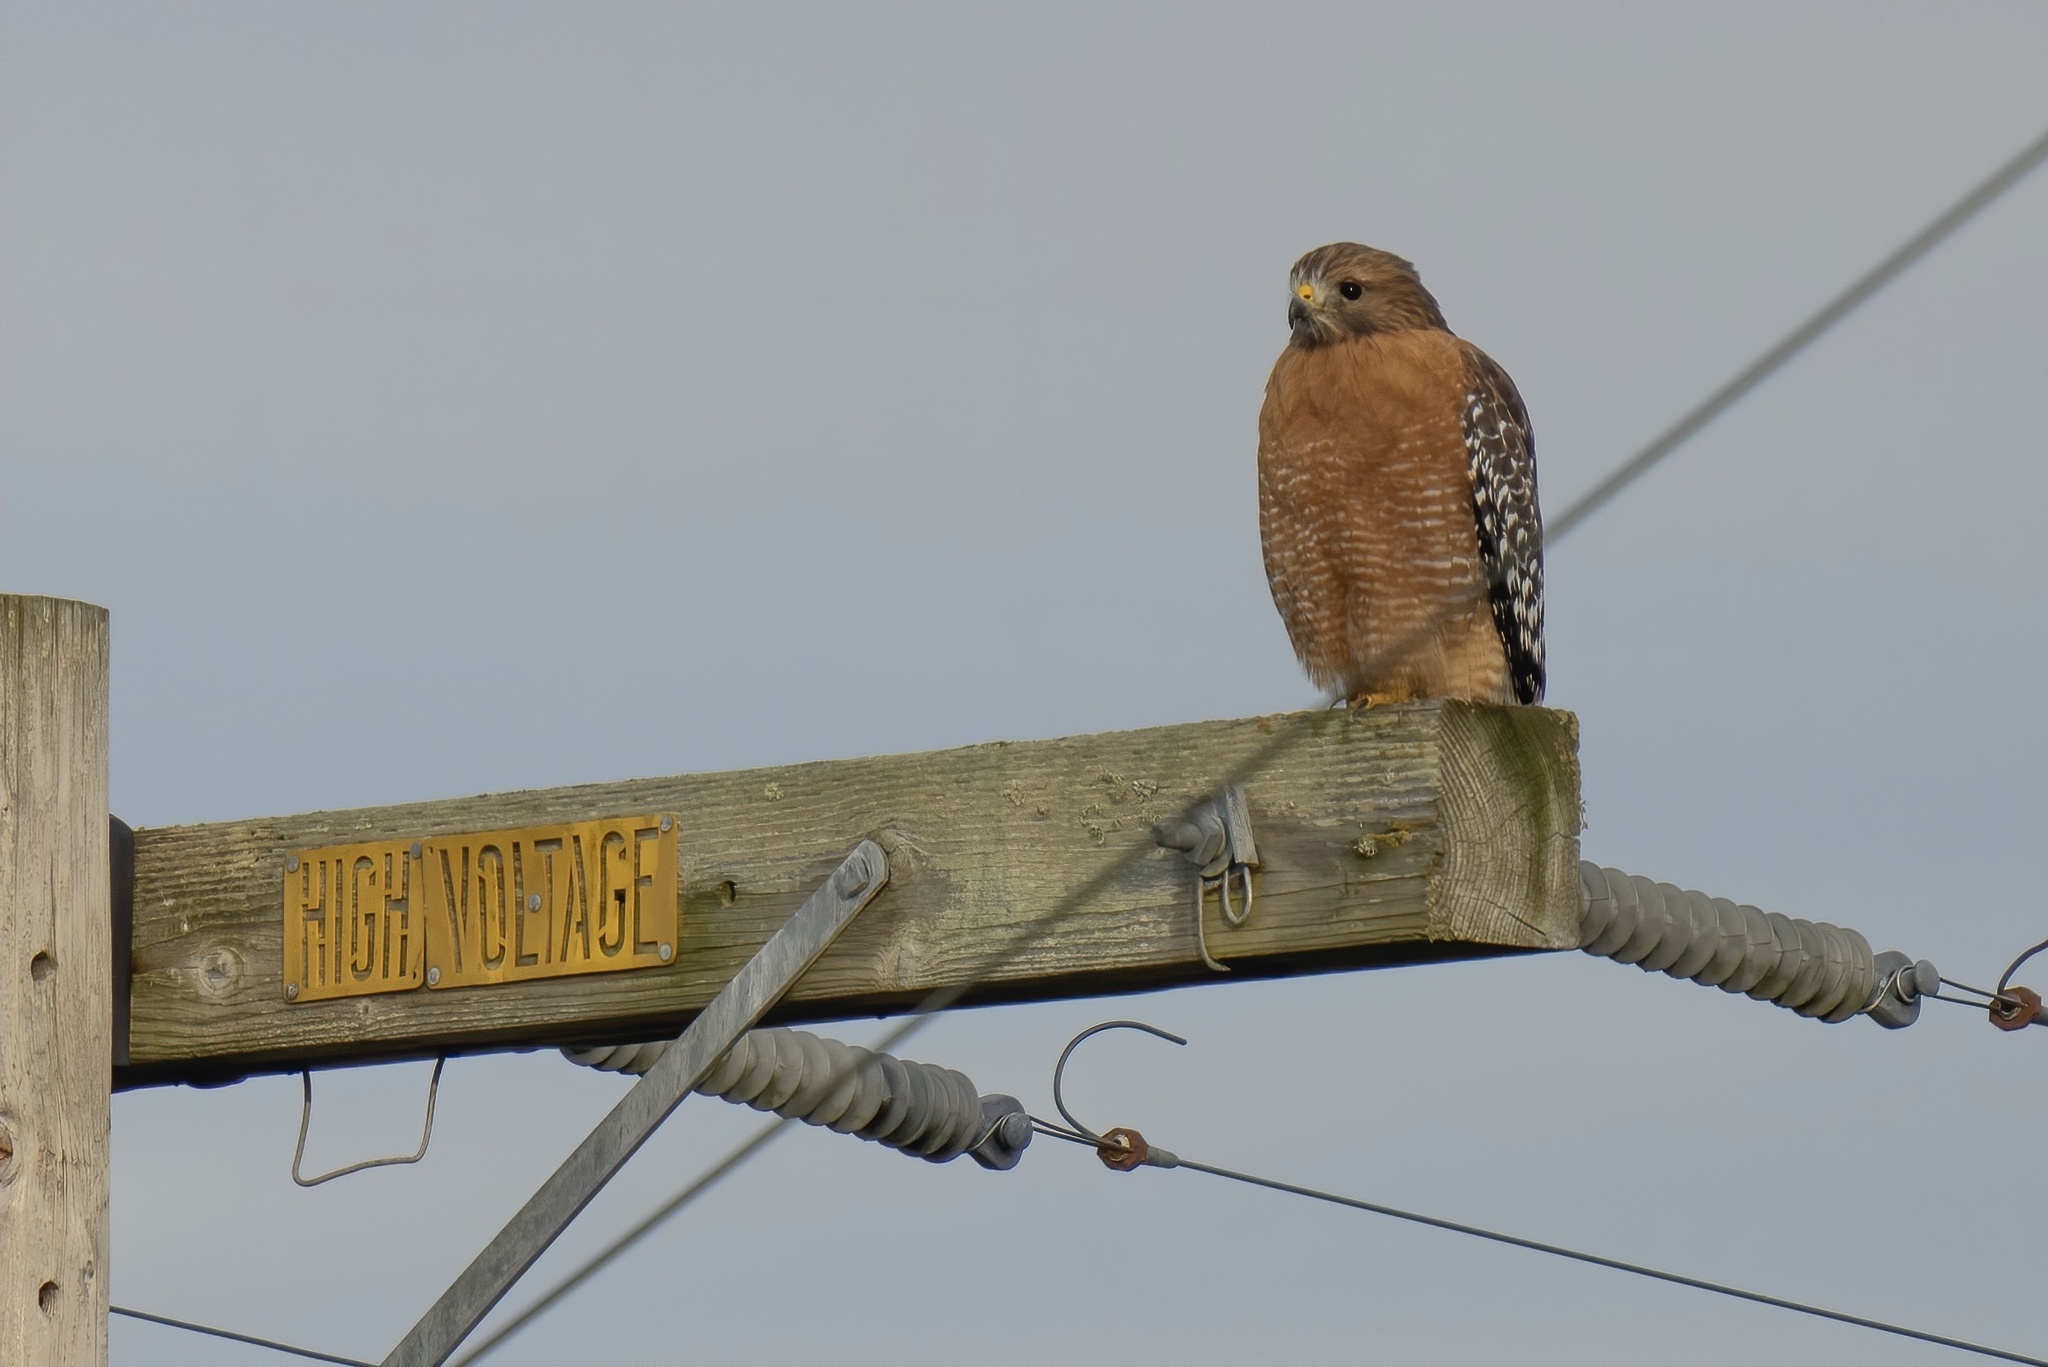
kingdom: Animalia
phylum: Chordata
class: Aves
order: Accipitriformes
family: Accipitridae
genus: Buteo
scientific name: Buteo lineatus
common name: Red-shouldered hawk
